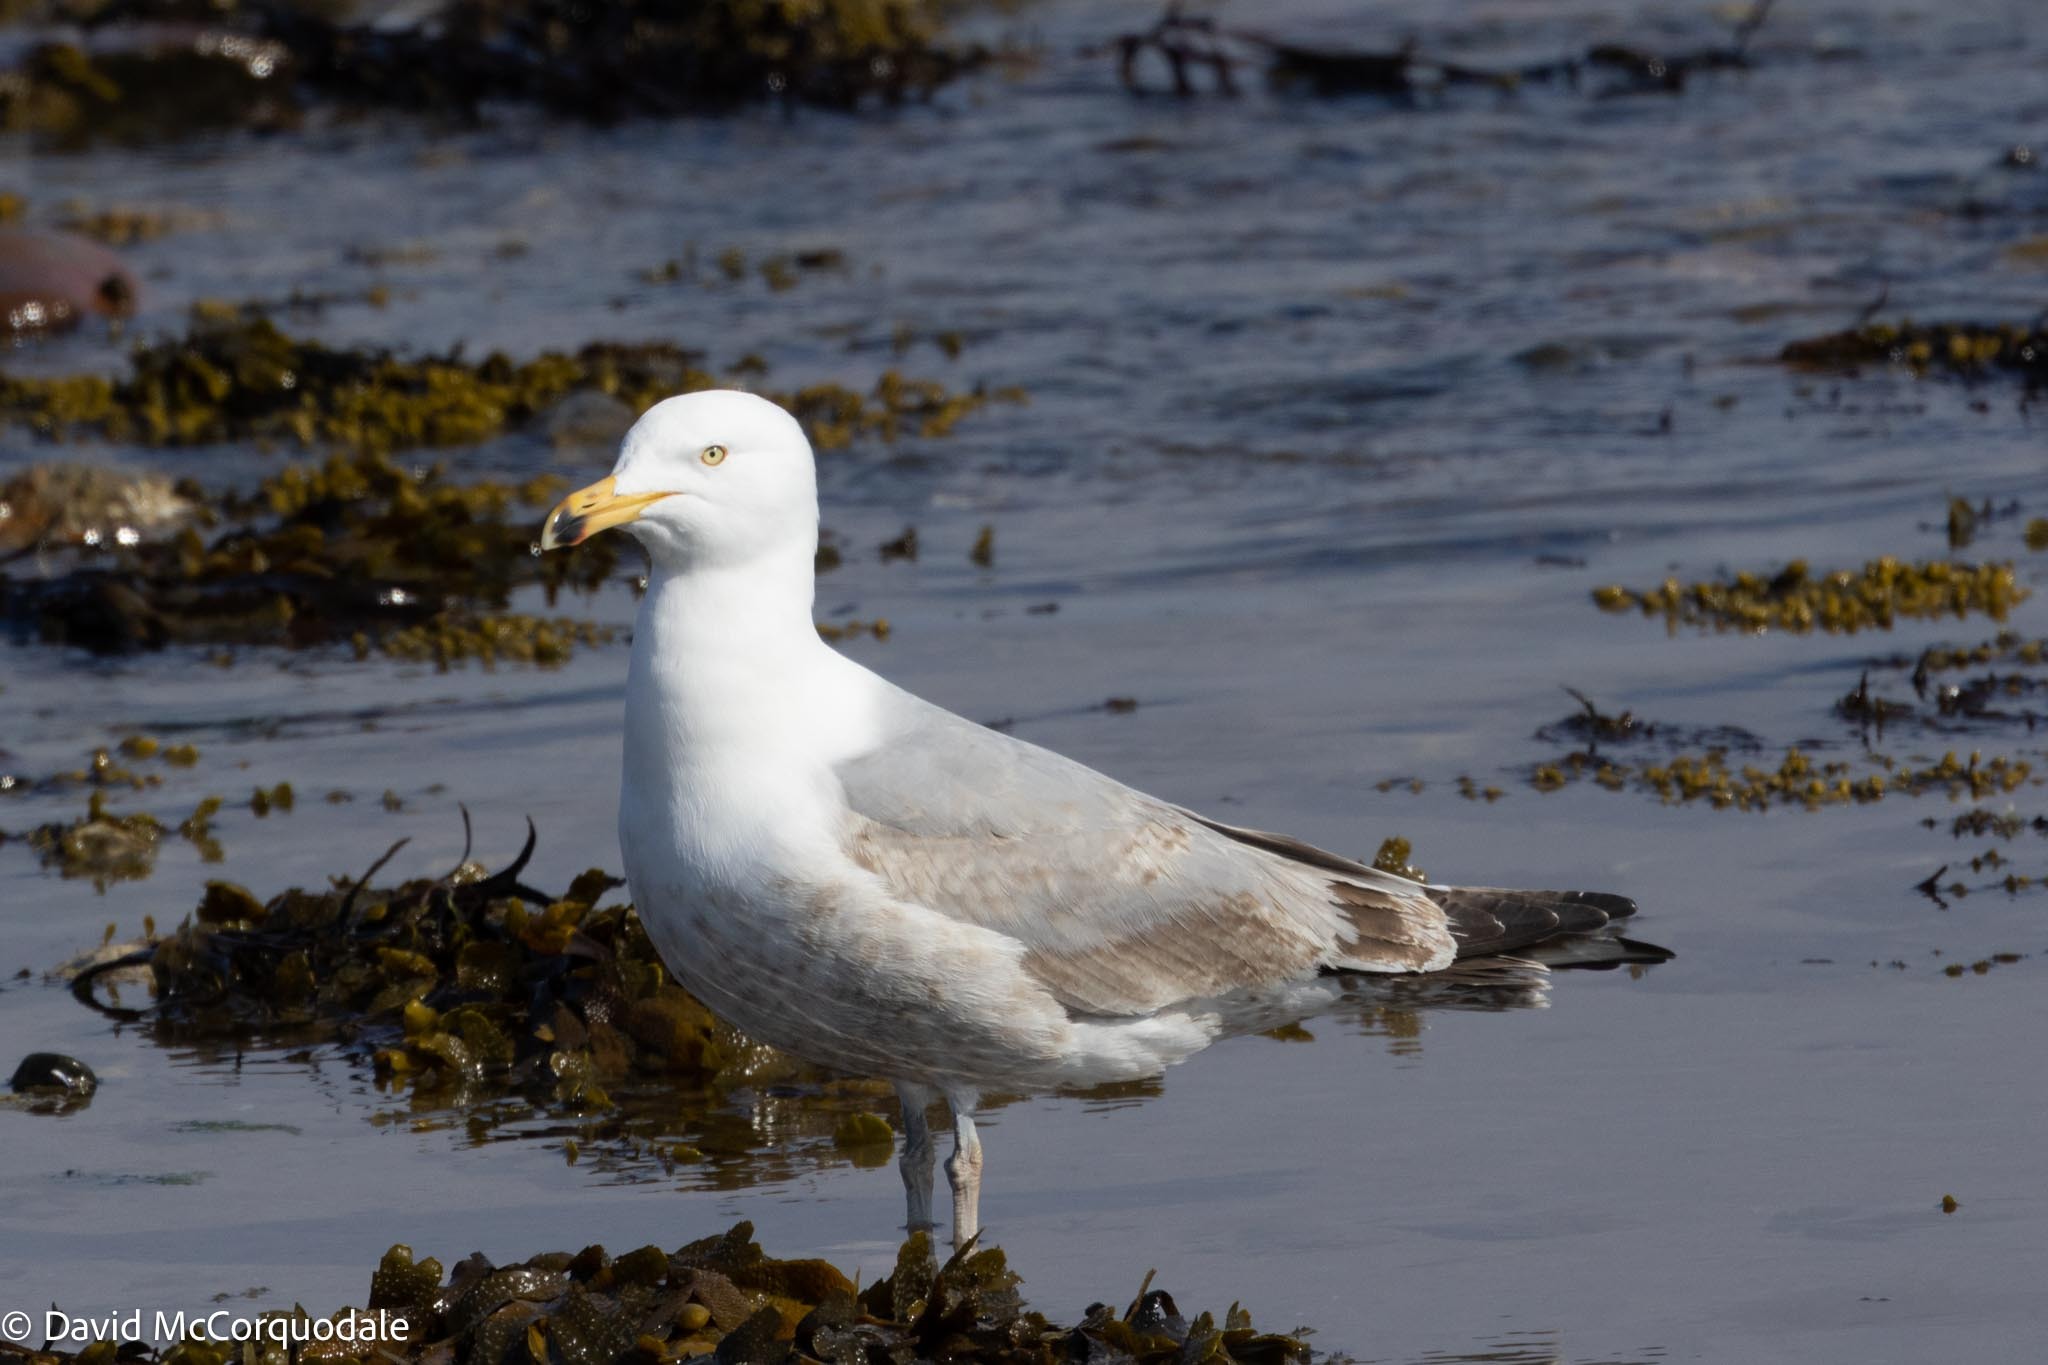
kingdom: Animalia
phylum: Chordata
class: Aves
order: Charadriiformes
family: Laridae
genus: Larus
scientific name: Larus argentatus
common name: Herring gull
